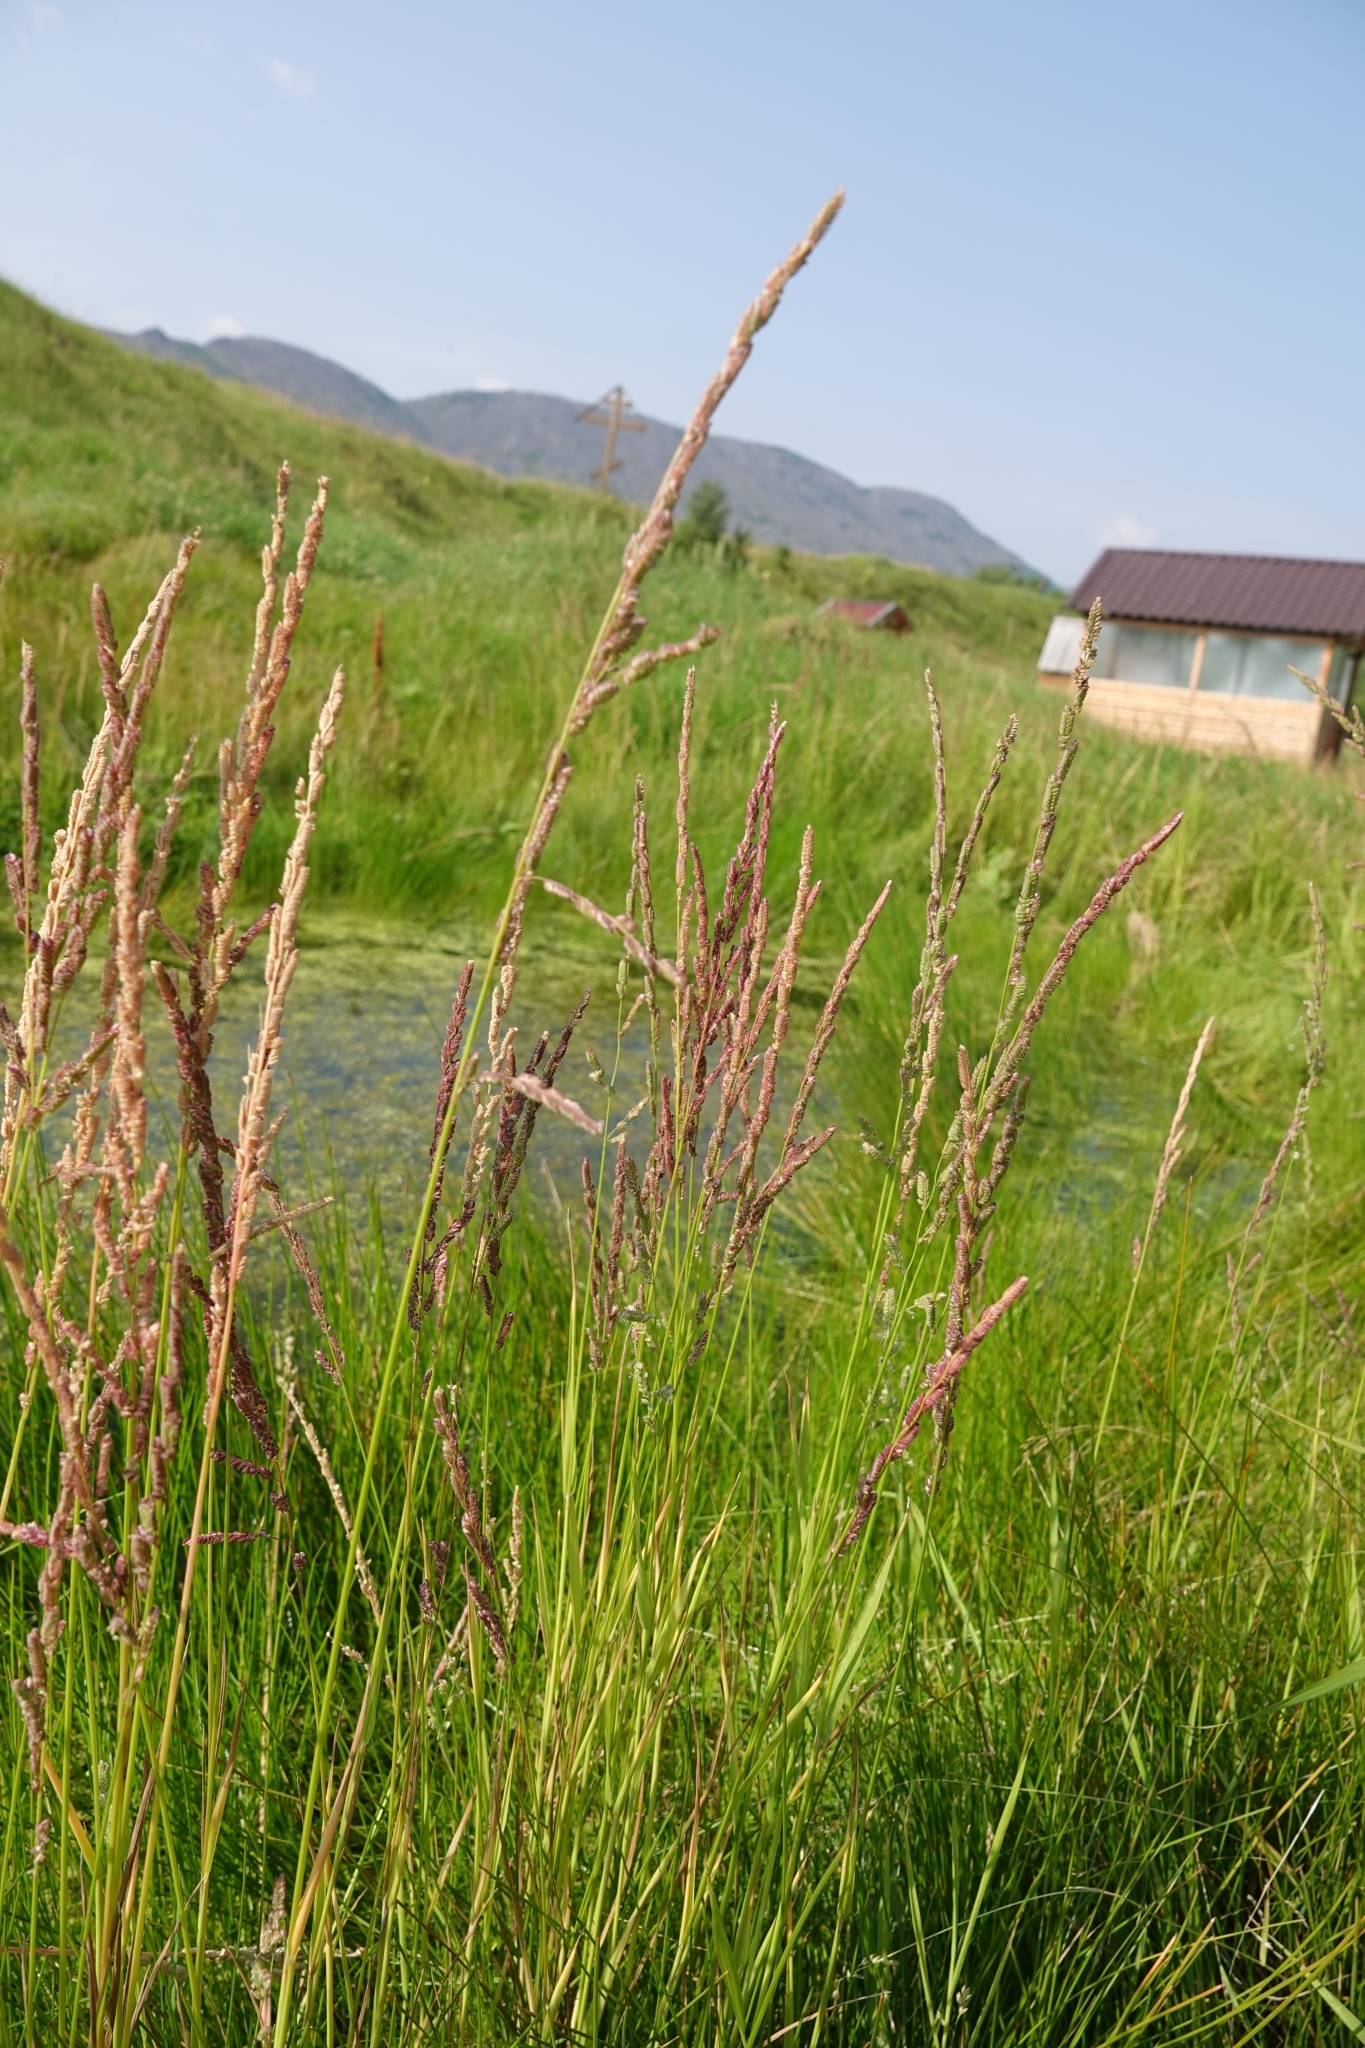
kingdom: Plantae
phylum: Tracheophyta
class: Liliopsida
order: Poales
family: Poaceae
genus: Beckmannia
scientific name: Beckmannia syzigachne
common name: American slough-grass
